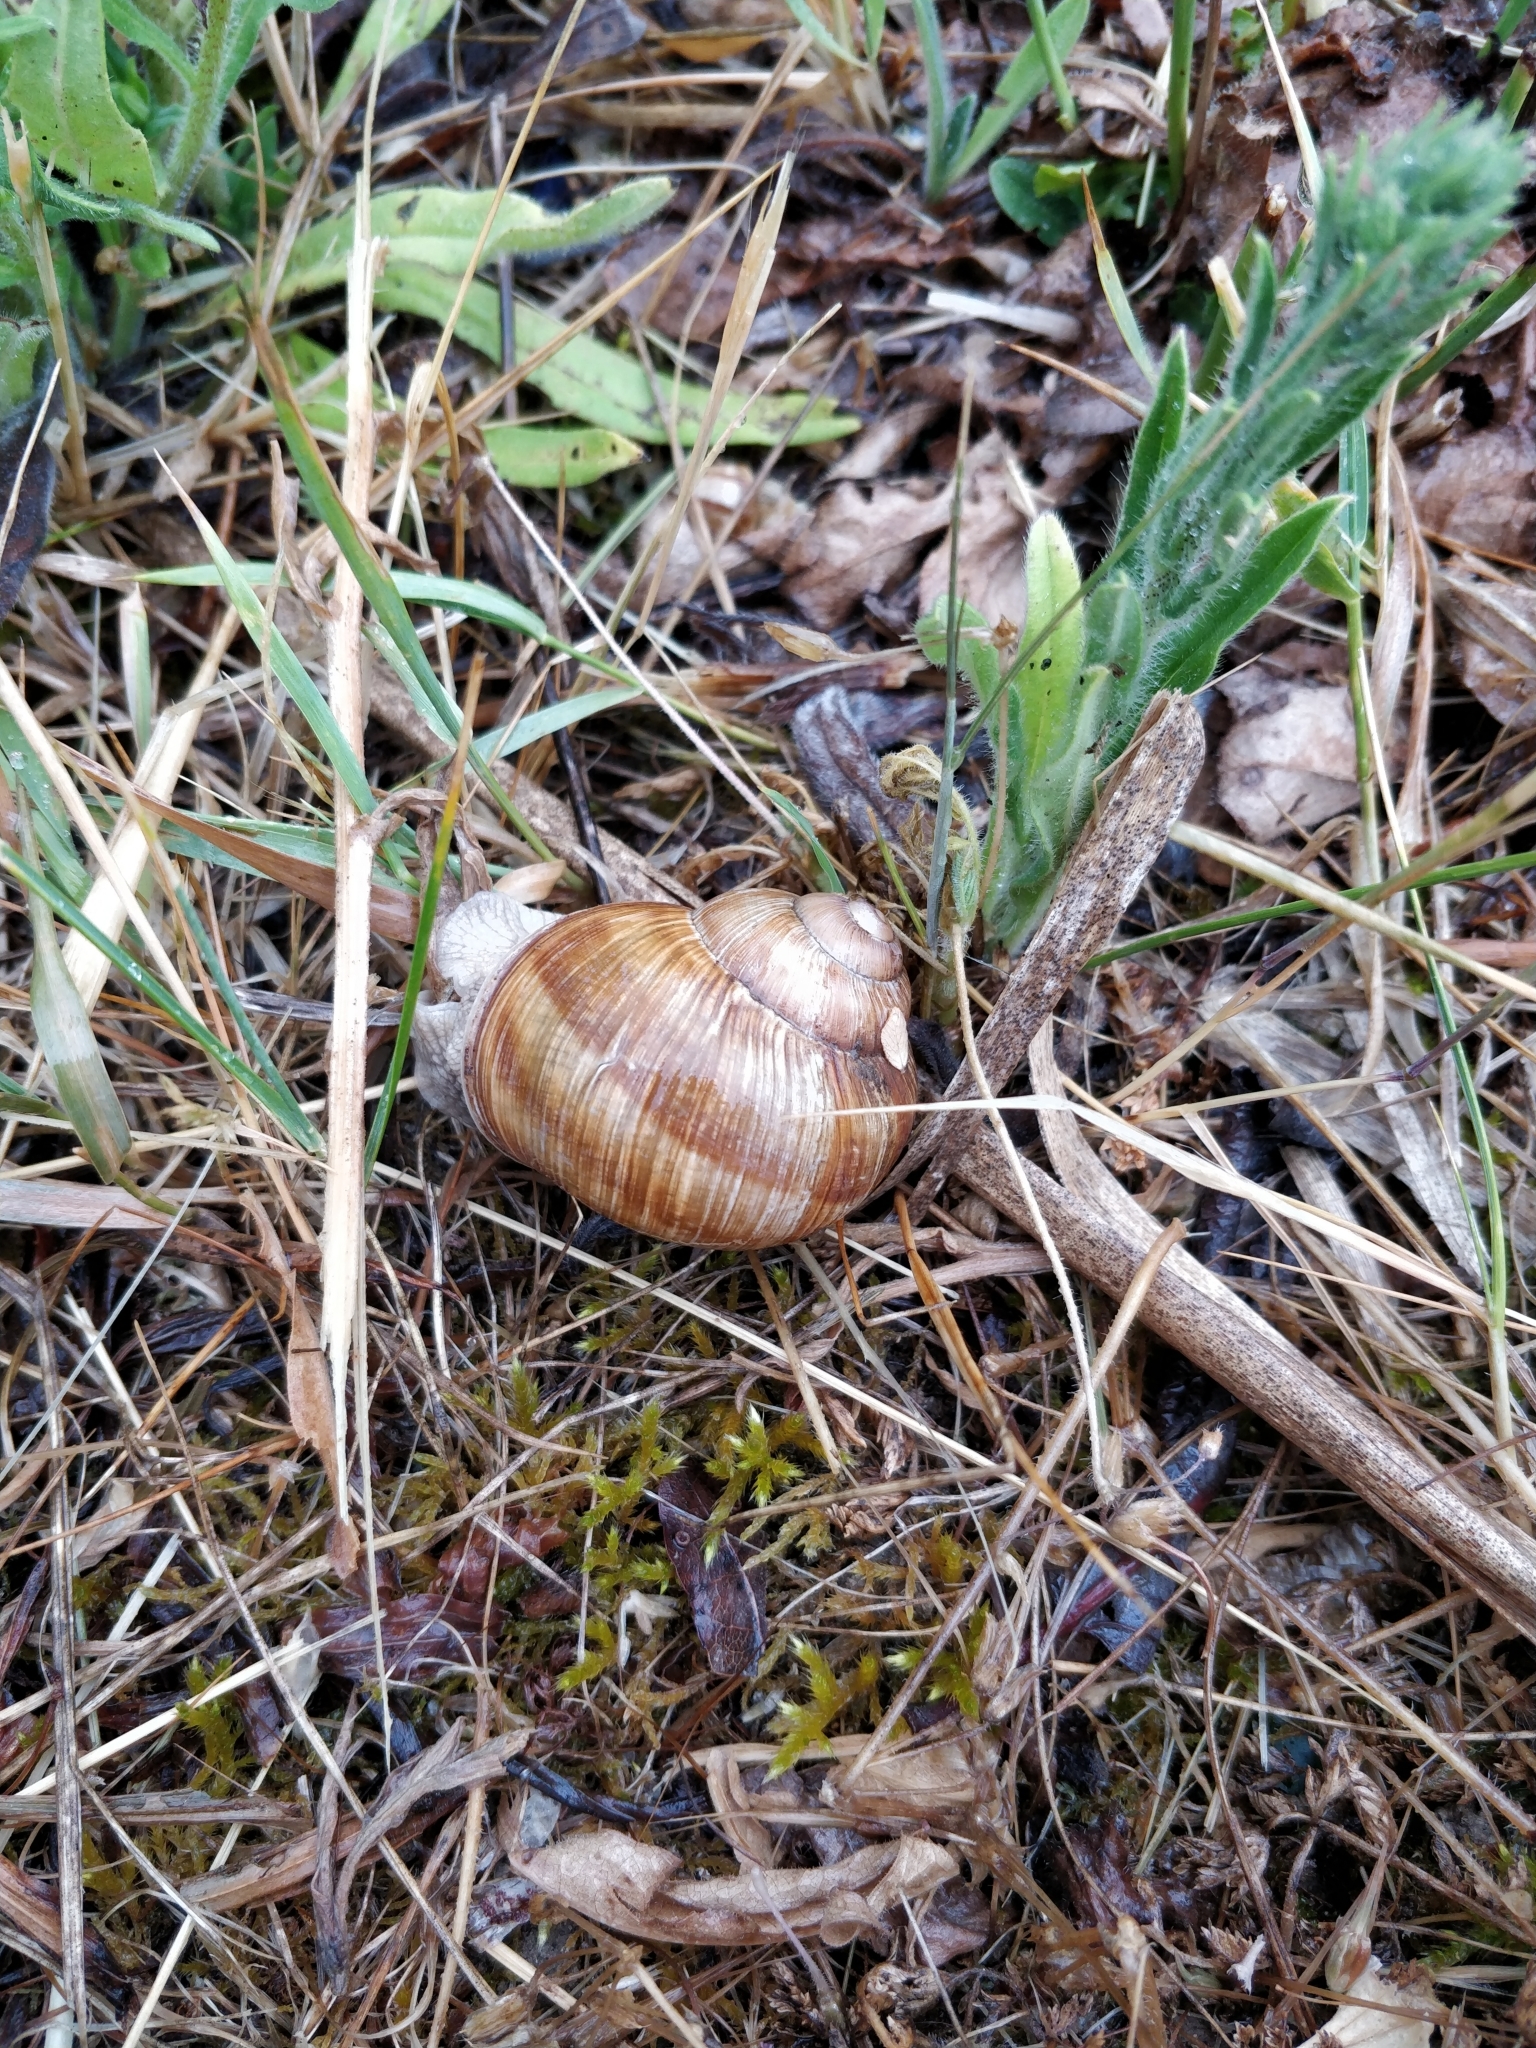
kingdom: Animalia
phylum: Mollusca
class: Gastropoda
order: Stylommatophora
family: Helicidae
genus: Helix
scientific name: Helix pomatia
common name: Roman snail
